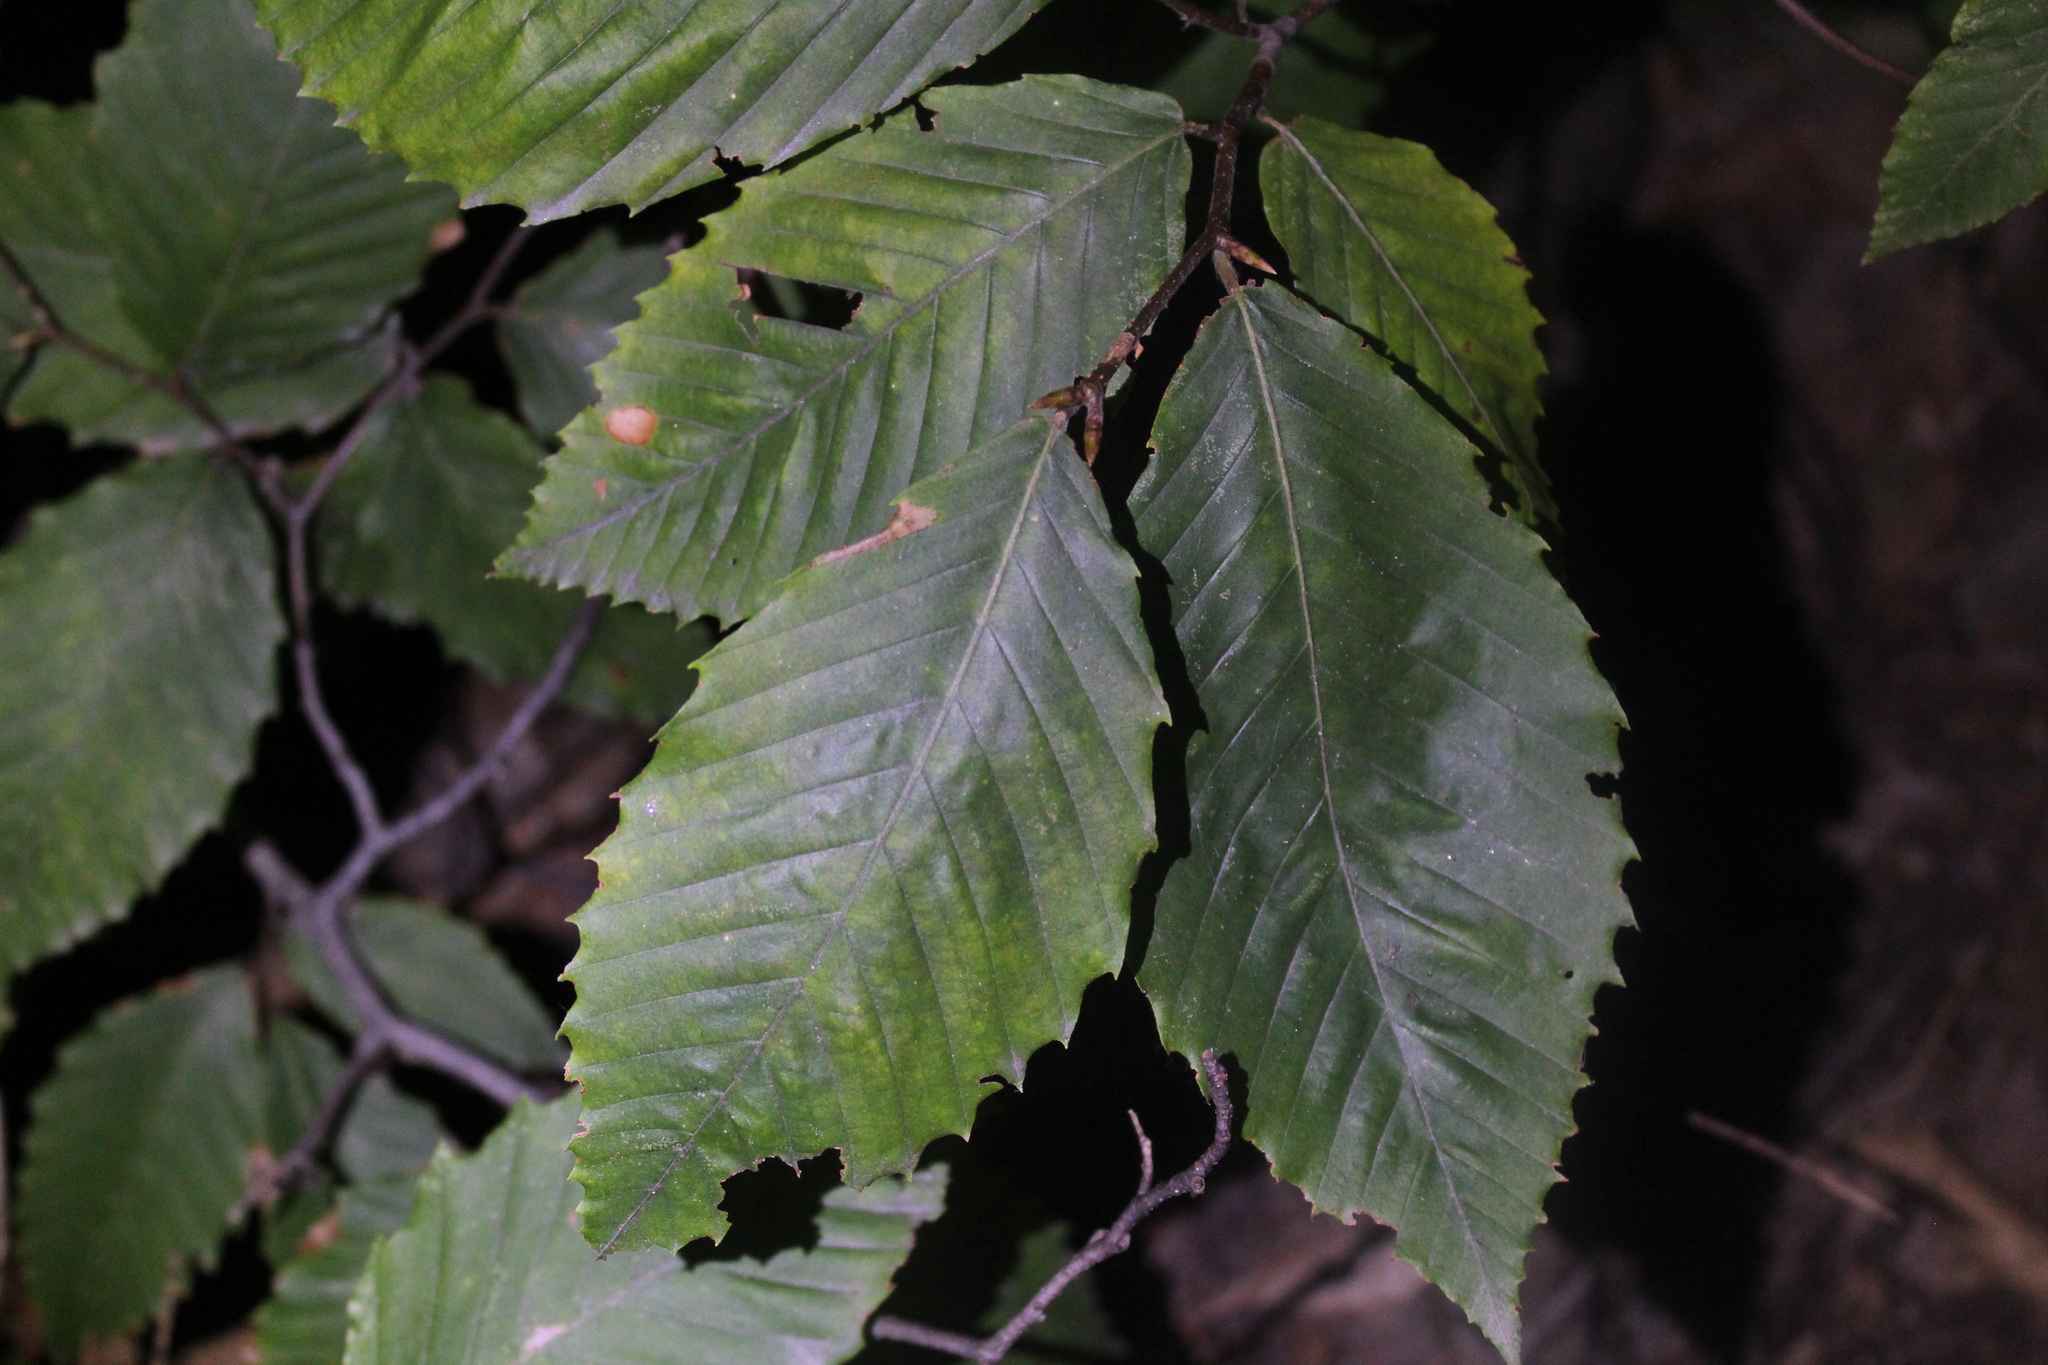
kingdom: Plantae
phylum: Tracheophyta
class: Magnoliopsida
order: Fagales
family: Fagaceae
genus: Fagus
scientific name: Fagus grandifolia
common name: American beech
